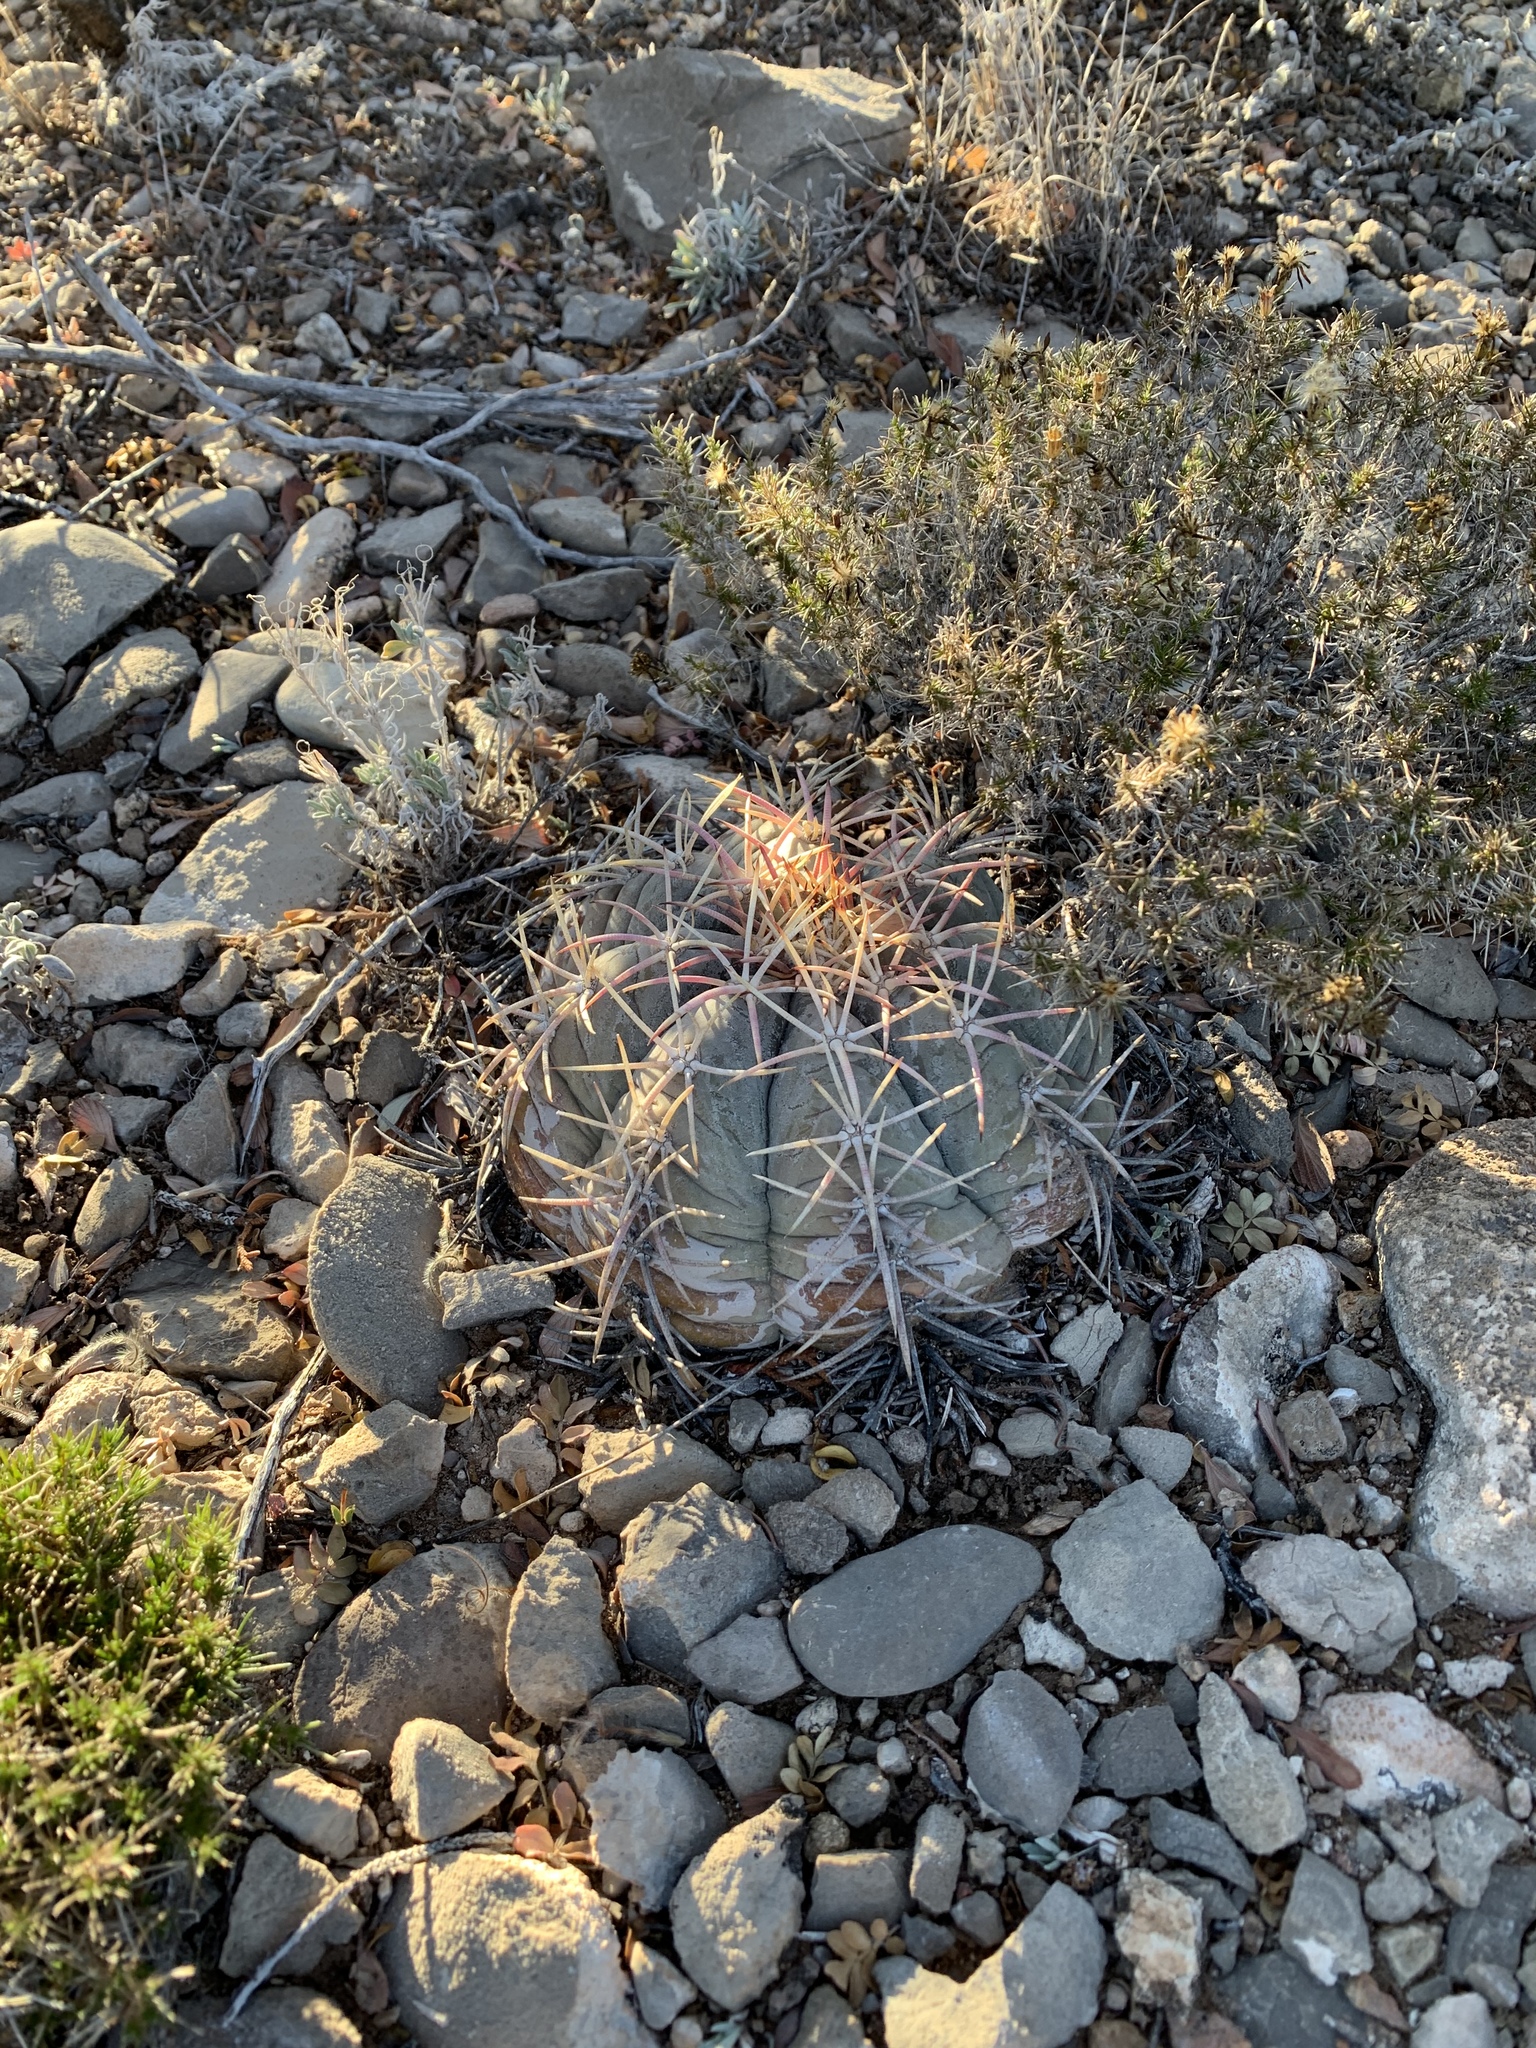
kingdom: Plantae
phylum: Tracheophyta
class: Magnoliopsida
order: Caryophyllales
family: Cactaceae
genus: Echinocactus
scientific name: Echinocactus horizonthalonius
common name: Devilshead
